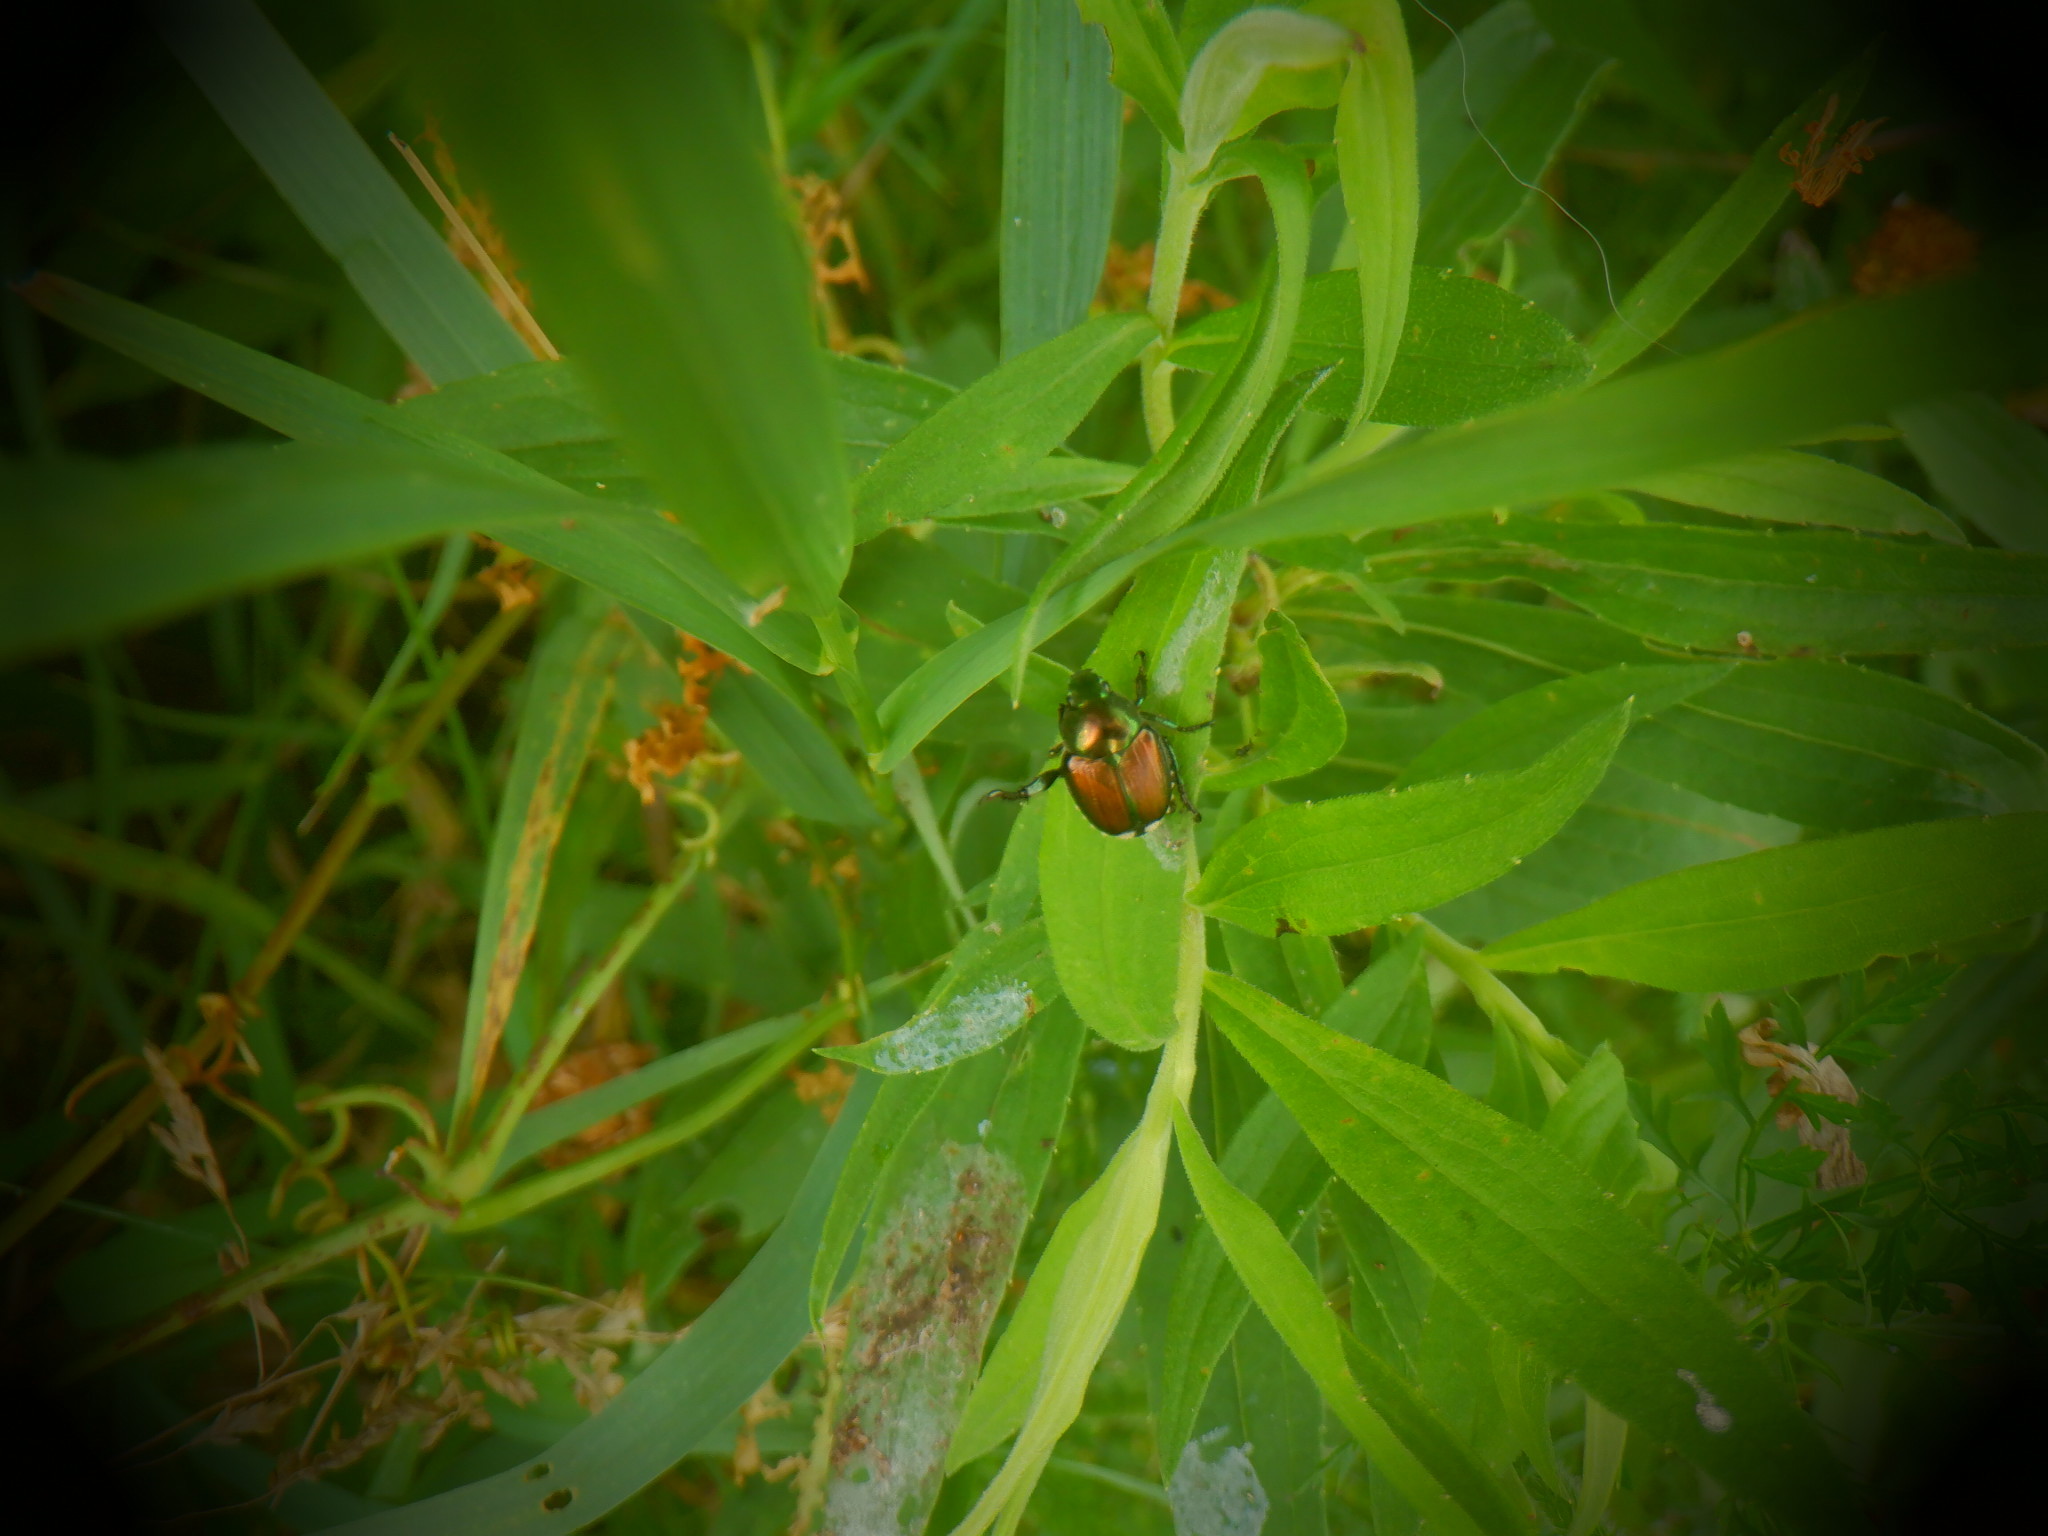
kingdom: Animalia
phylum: Arthropoda
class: Insecta
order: Coleoptera
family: Scarabaeidae
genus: Popillia
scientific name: Popillia japonica
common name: Japanese beetle
